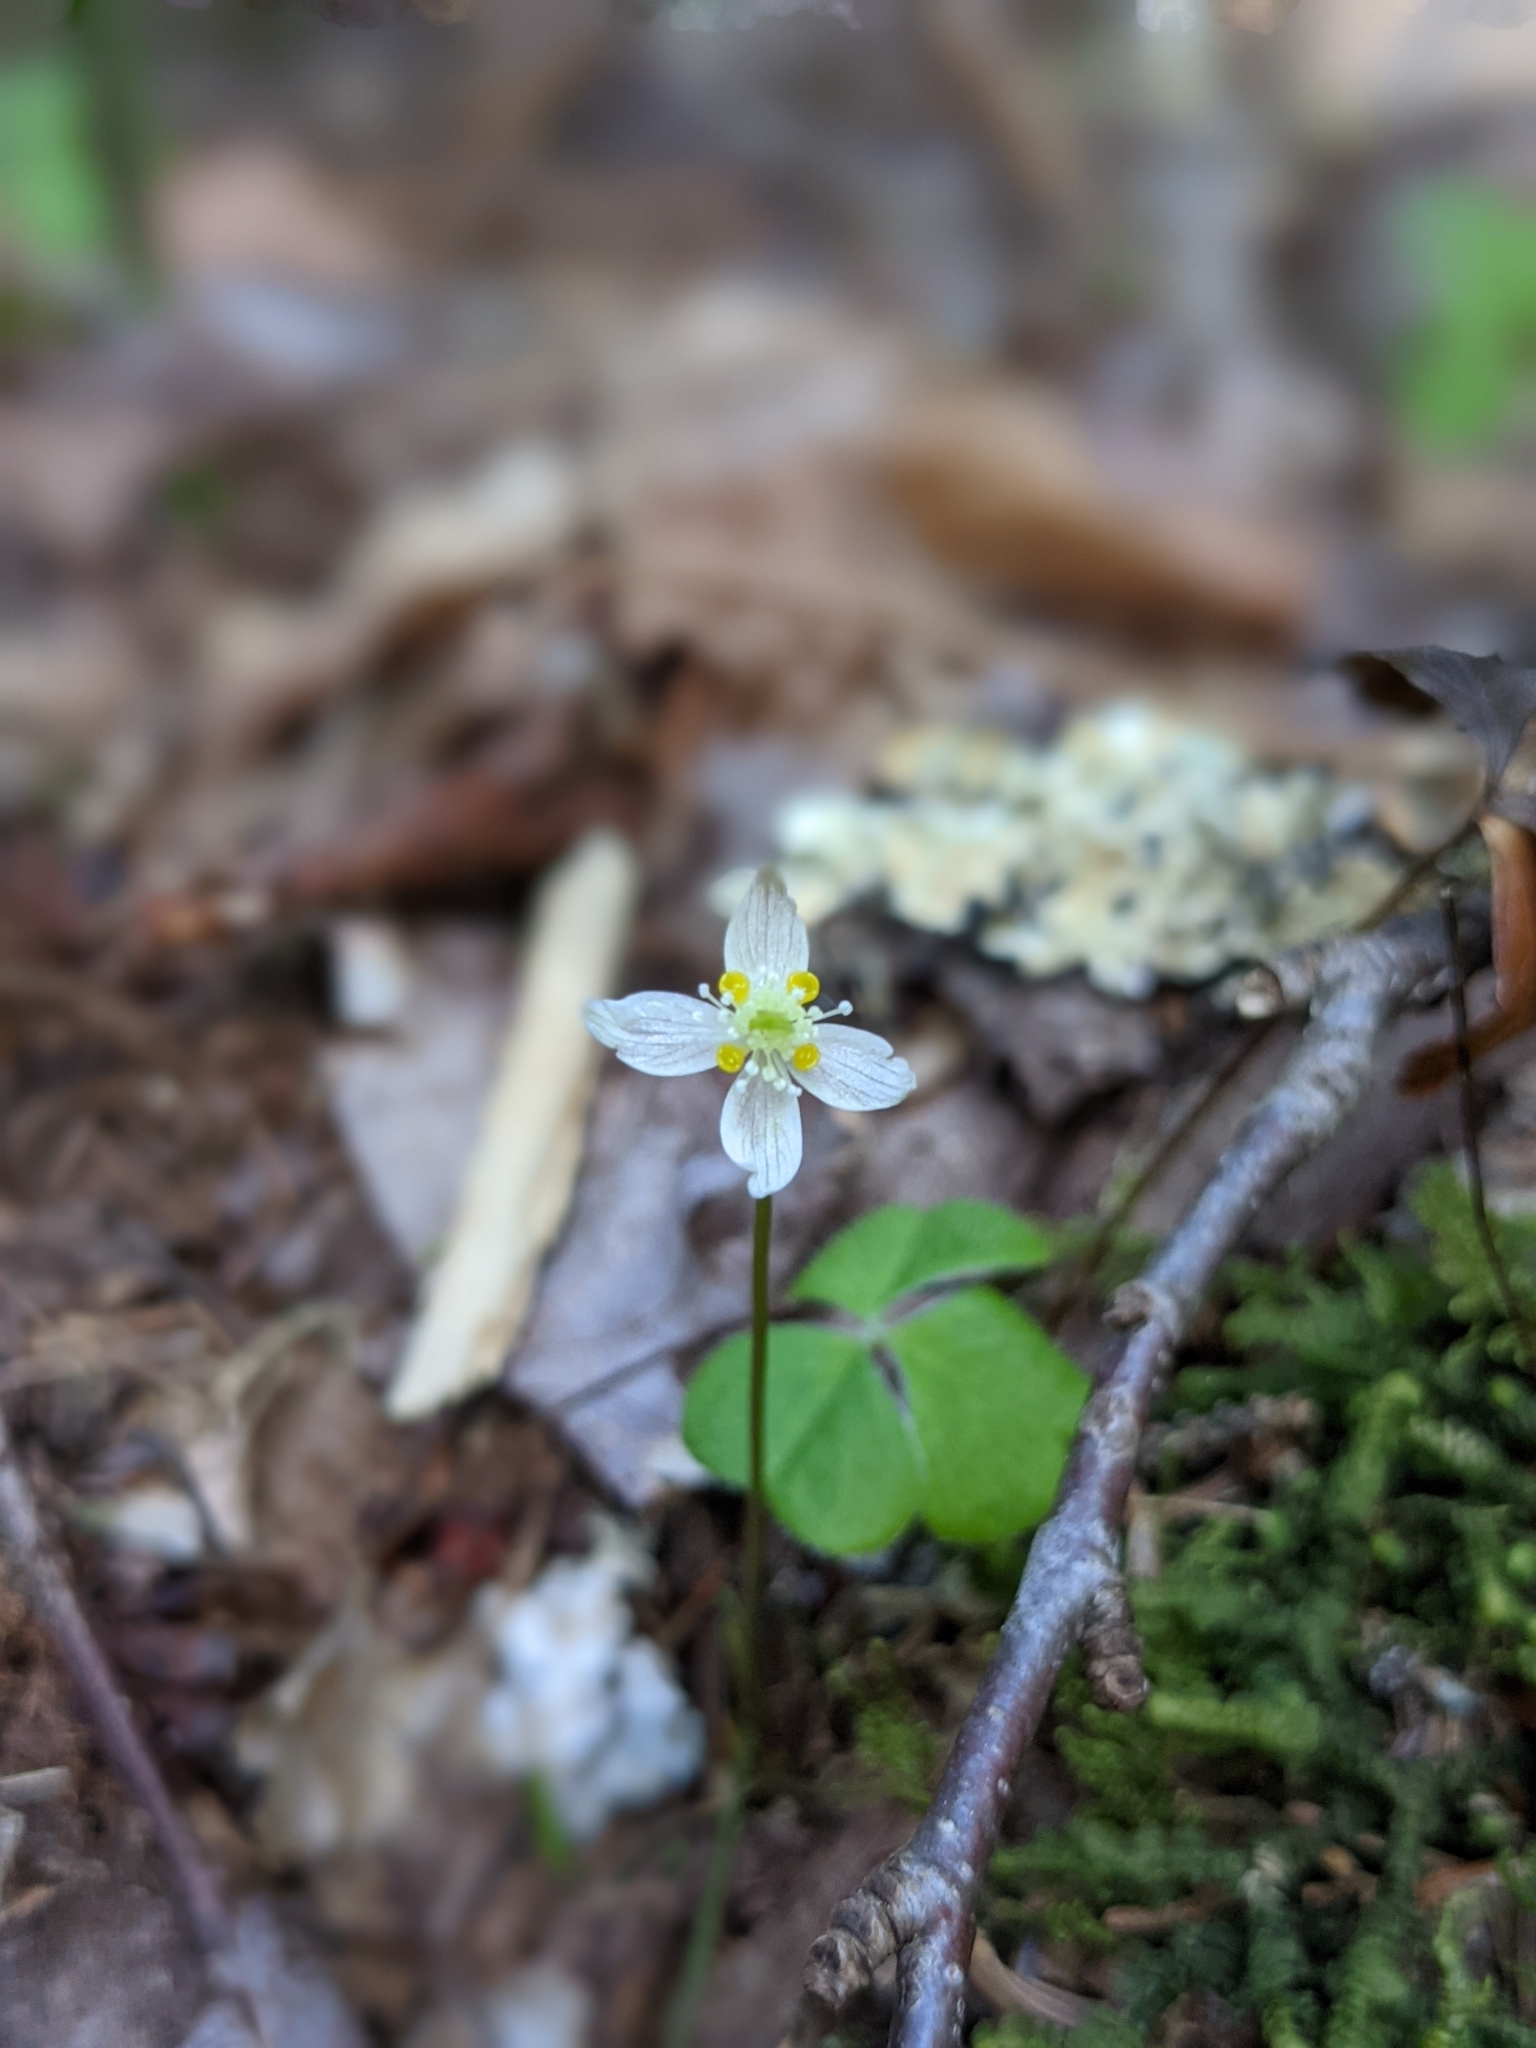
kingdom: Plantae
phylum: Tracheophyta
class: Magnoliopsida
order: Ranunculales
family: Ranunculaceae
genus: Coptis
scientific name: Coptis trifolia
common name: Canker-root
